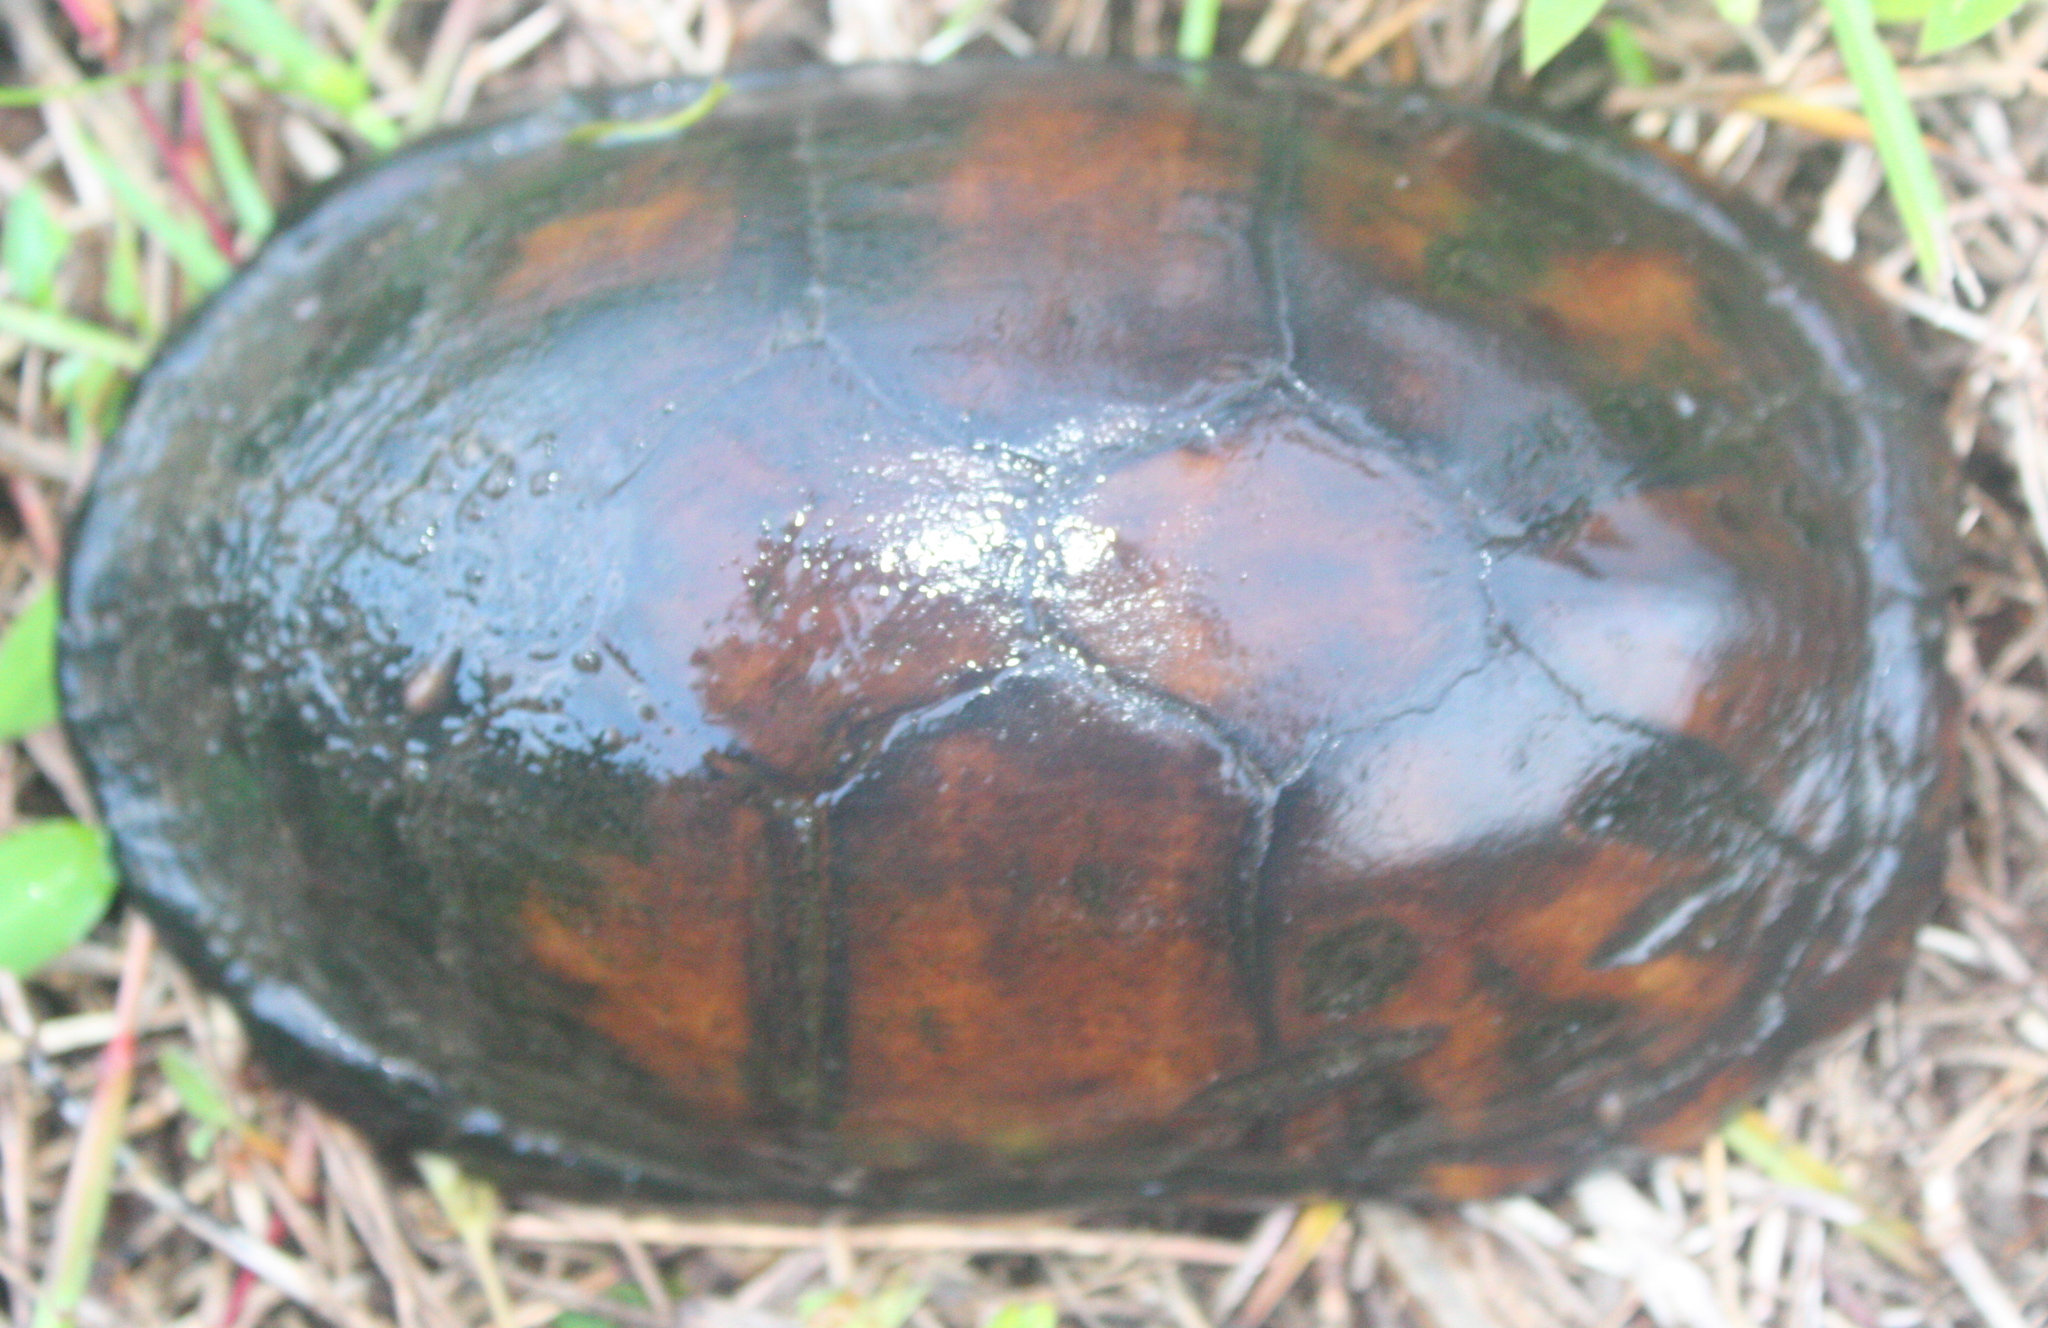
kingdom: Animalia
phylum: Chordata
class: Testudines
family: Kinosternidae
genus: Kinosternon
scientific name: Kinosternon leucostomum
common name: White-lipped mud turtle
